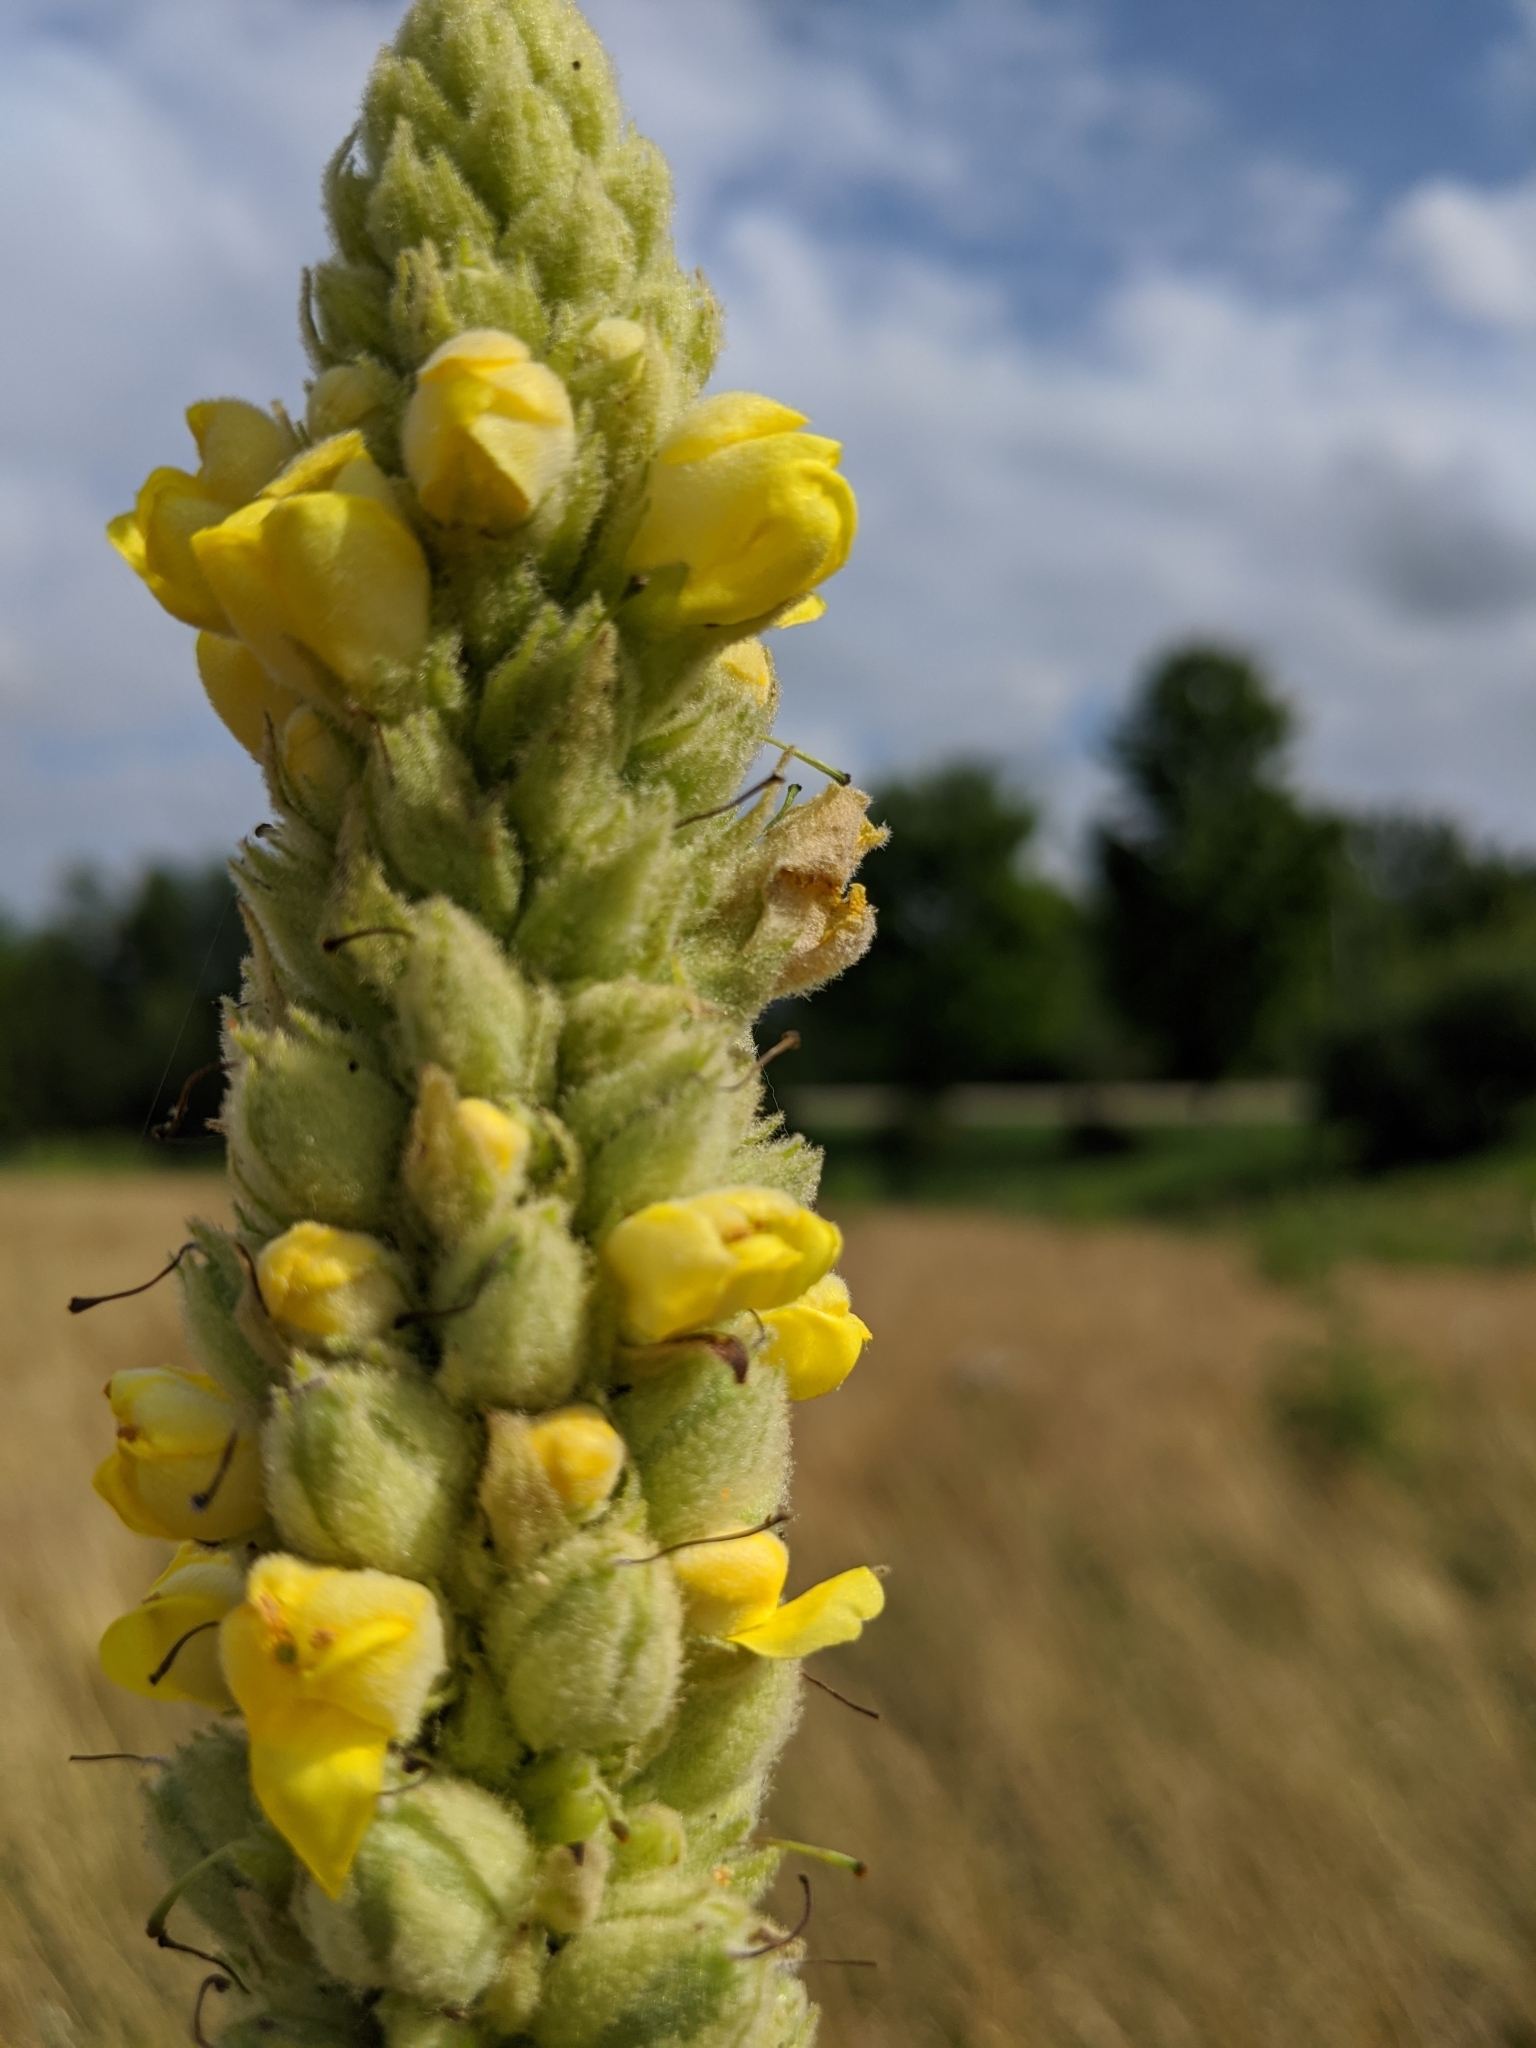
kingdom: Plantae
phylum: Tracheophyta
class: Magnoliopsida
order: Lamiales
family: Scrophulariaceae
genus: Verbascum
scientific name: Verbascum thapsus
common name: Common mullein
